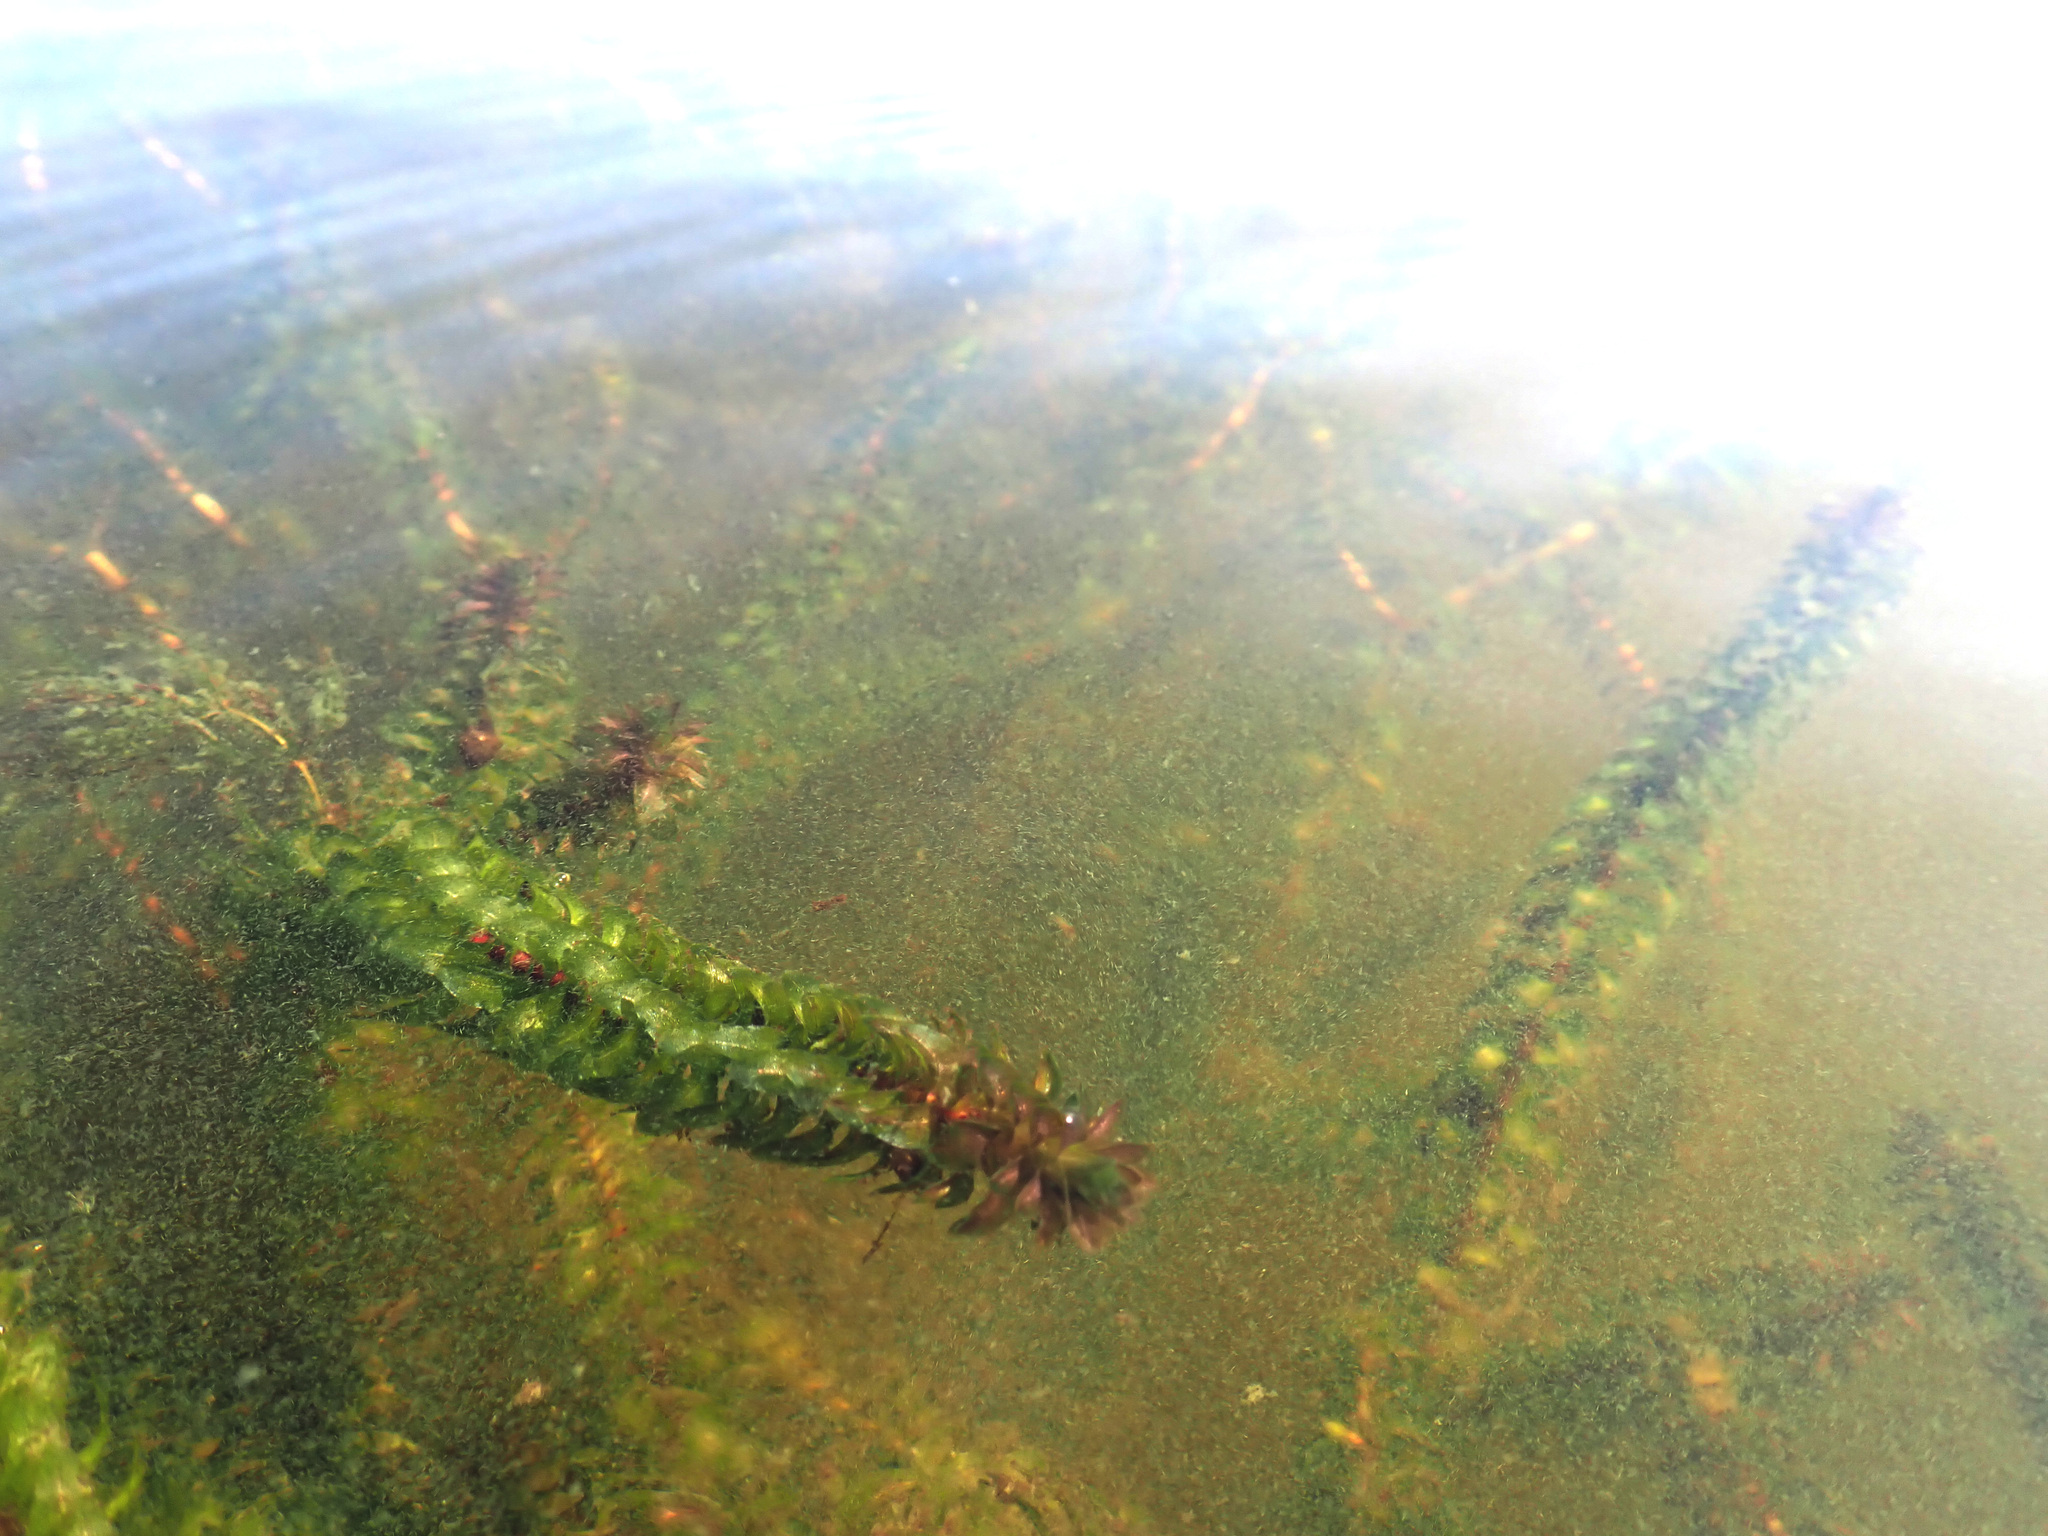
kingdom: Plantae
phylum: Tracheophyta
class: Liliopsida
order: Alismatales
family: Hydrocharitaceae
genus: Elodea
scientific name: Elodea canadensis
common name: Canadian waterweed
